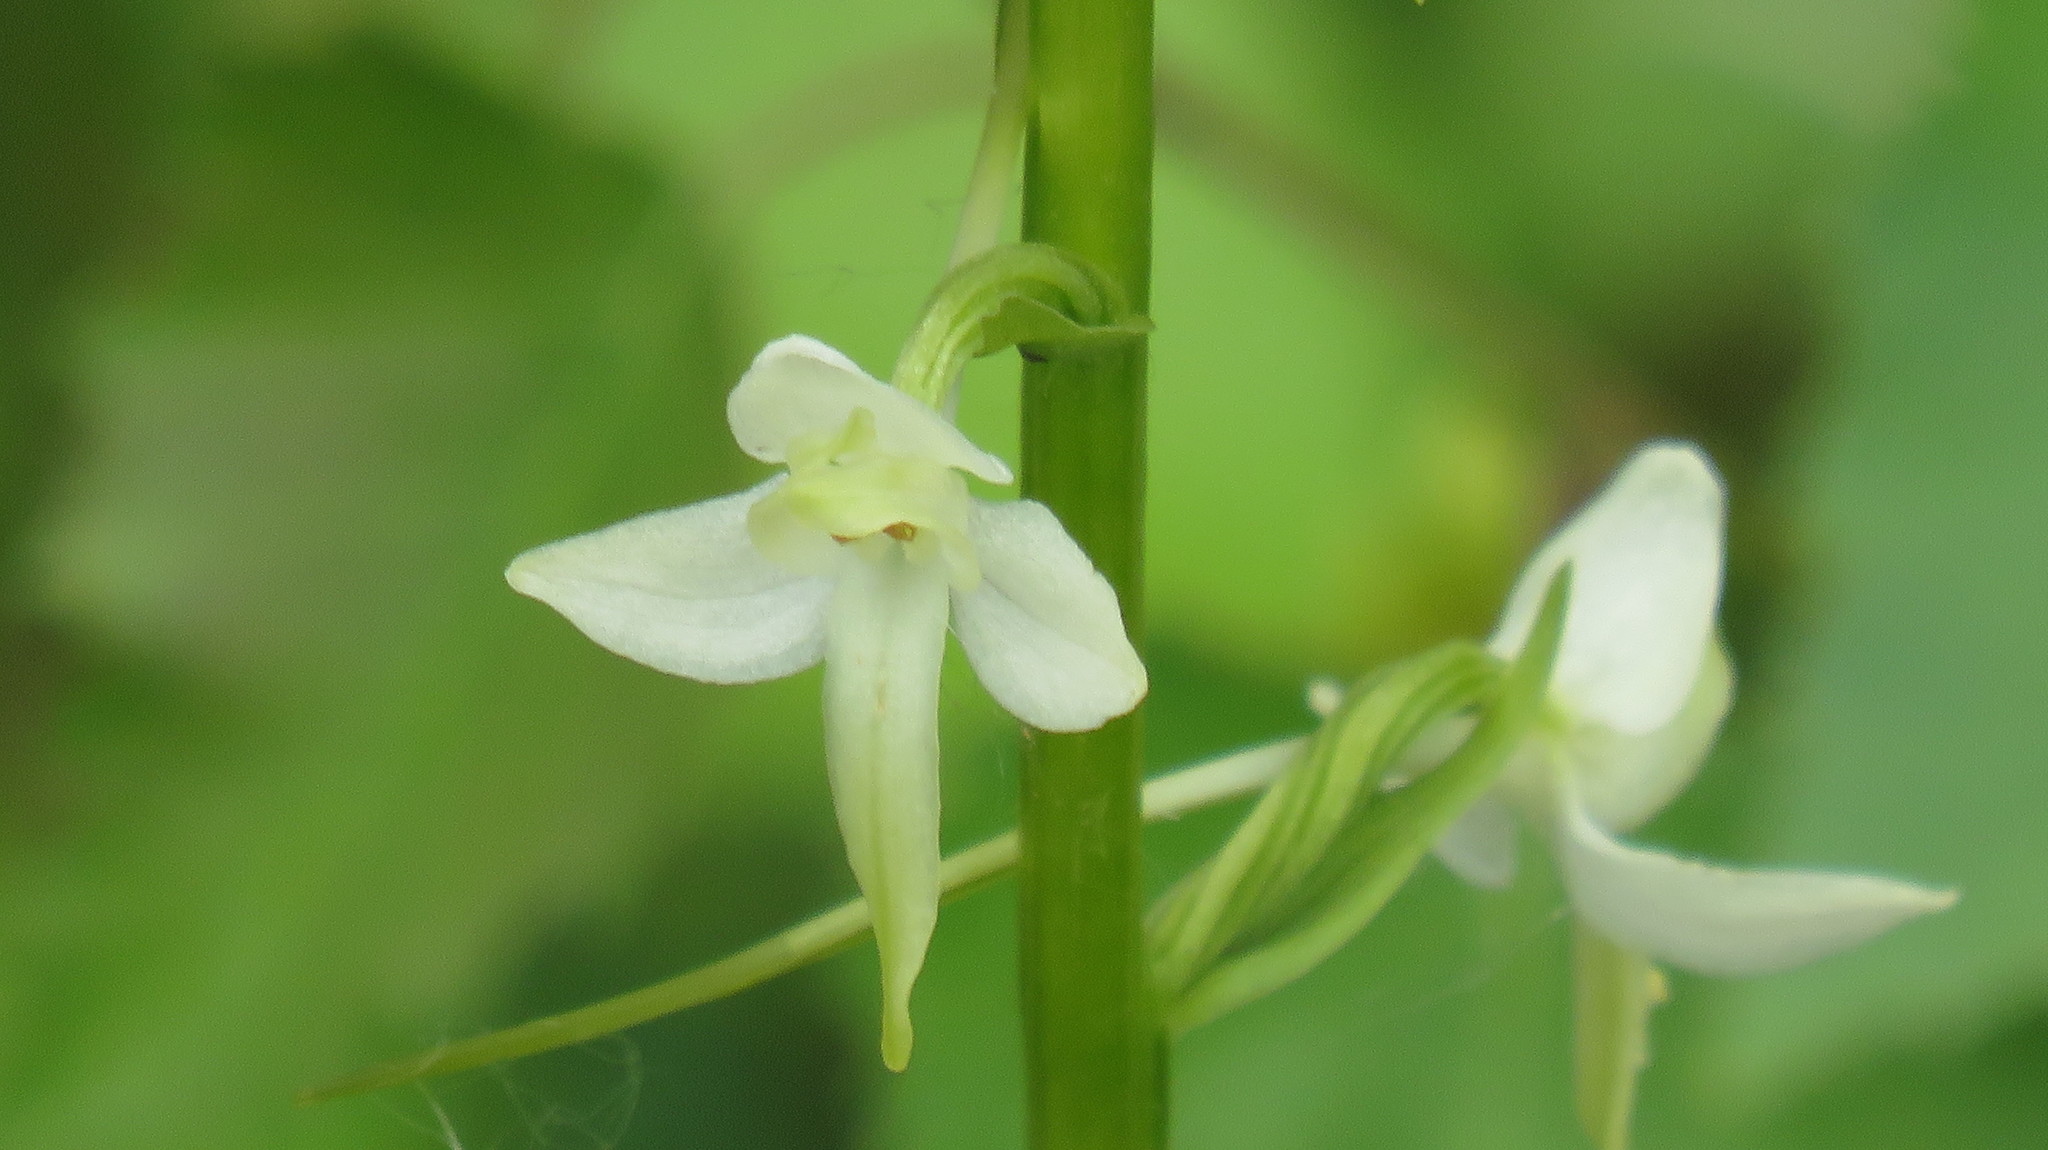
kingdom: Plantae
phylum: Tracheophyta
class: Liliopsida
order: Asparagales
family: Orchidaceae
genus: Platanthera
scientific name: Platanthera bifolia
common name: Lesser butterfly-orchid
